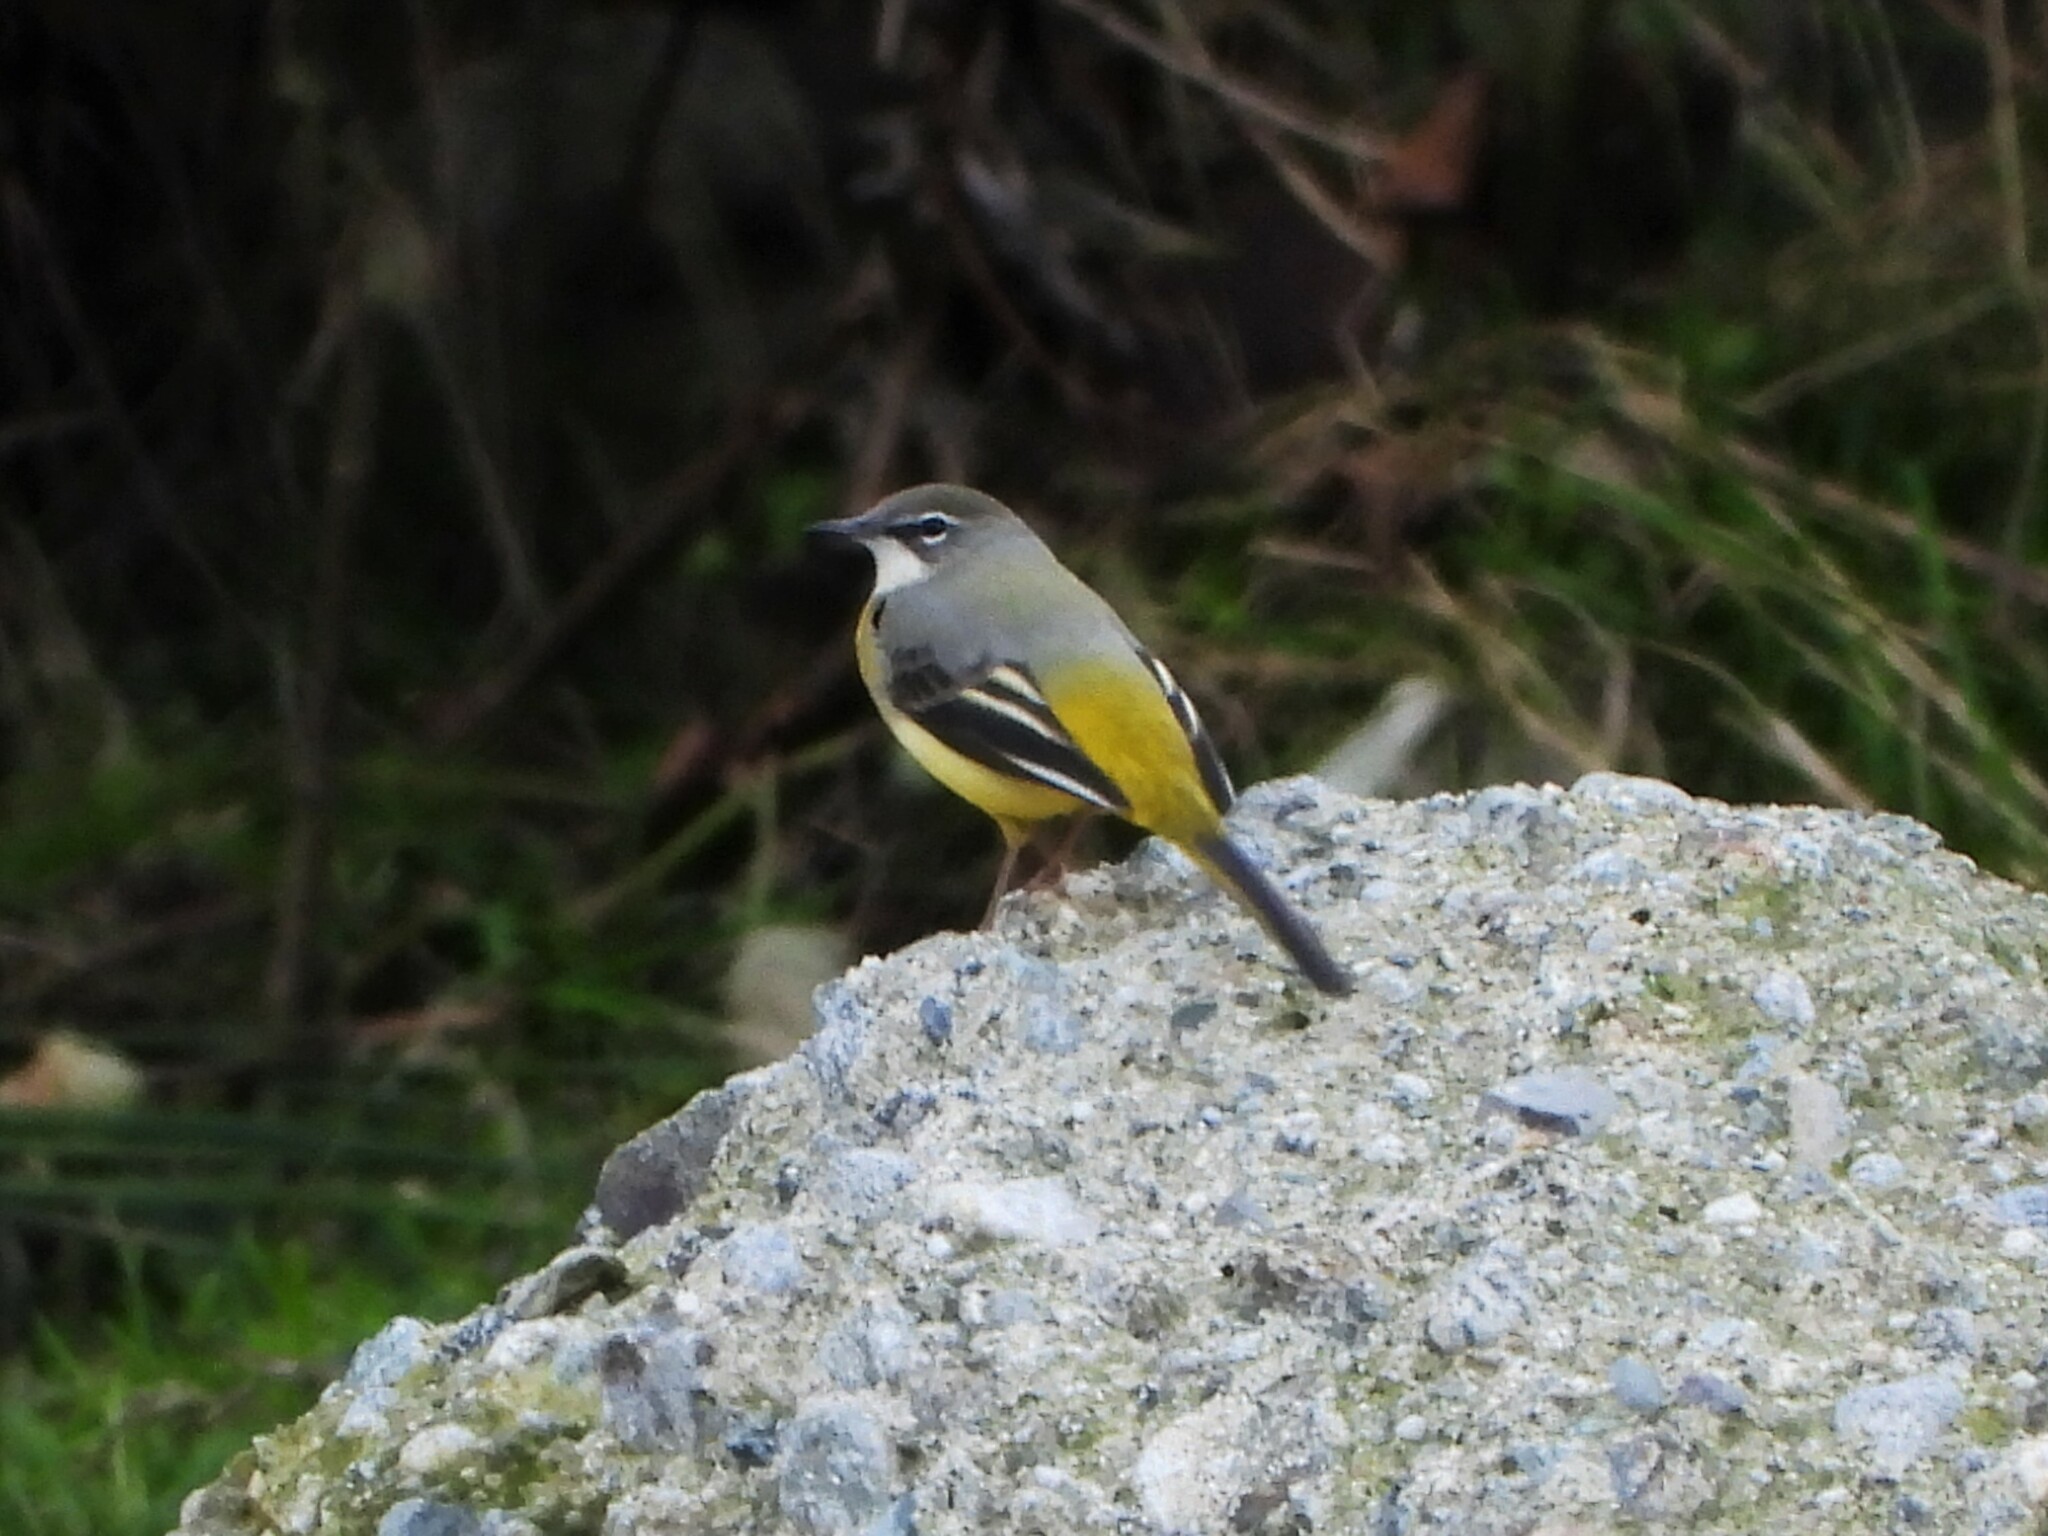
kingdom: Animalia
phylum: Chordata
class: Aves
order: Passeriformes
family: Motacillidae
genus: Motacilla
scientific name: Motacilla cinerea
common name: Grey wagtail
